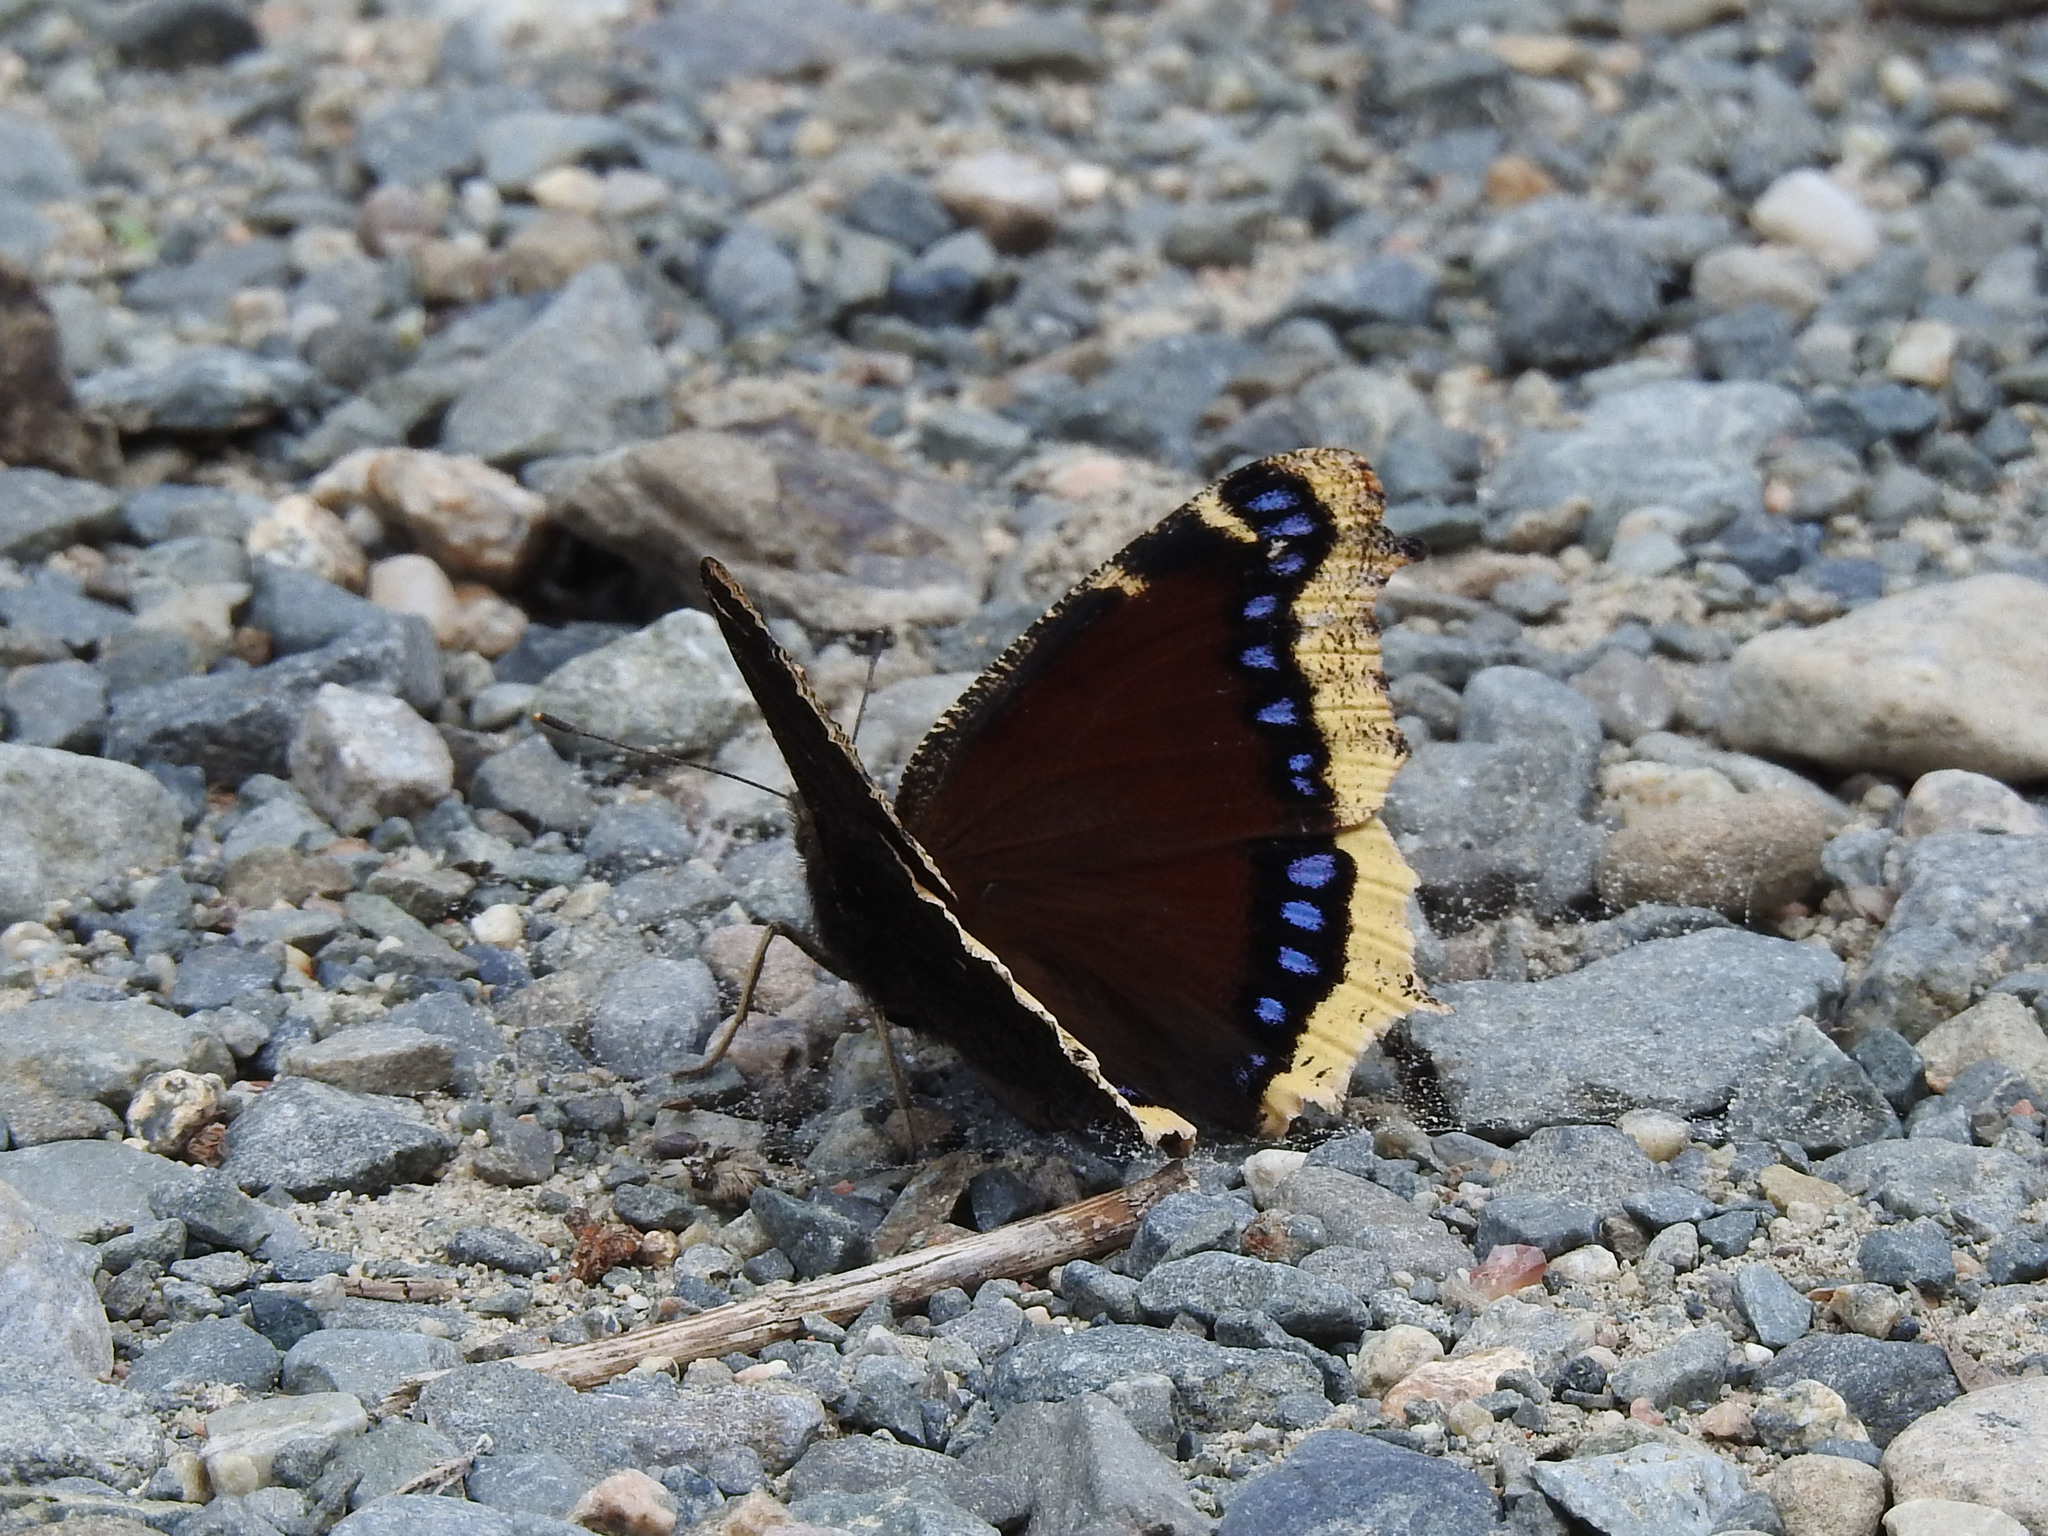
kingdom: Animalia
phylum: Arthropoda
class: Insecta
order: Lepidoptera
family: Nymphalidae
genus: Nymphalis
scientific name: Nymphalis antiopa
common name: Camberwell beauty
